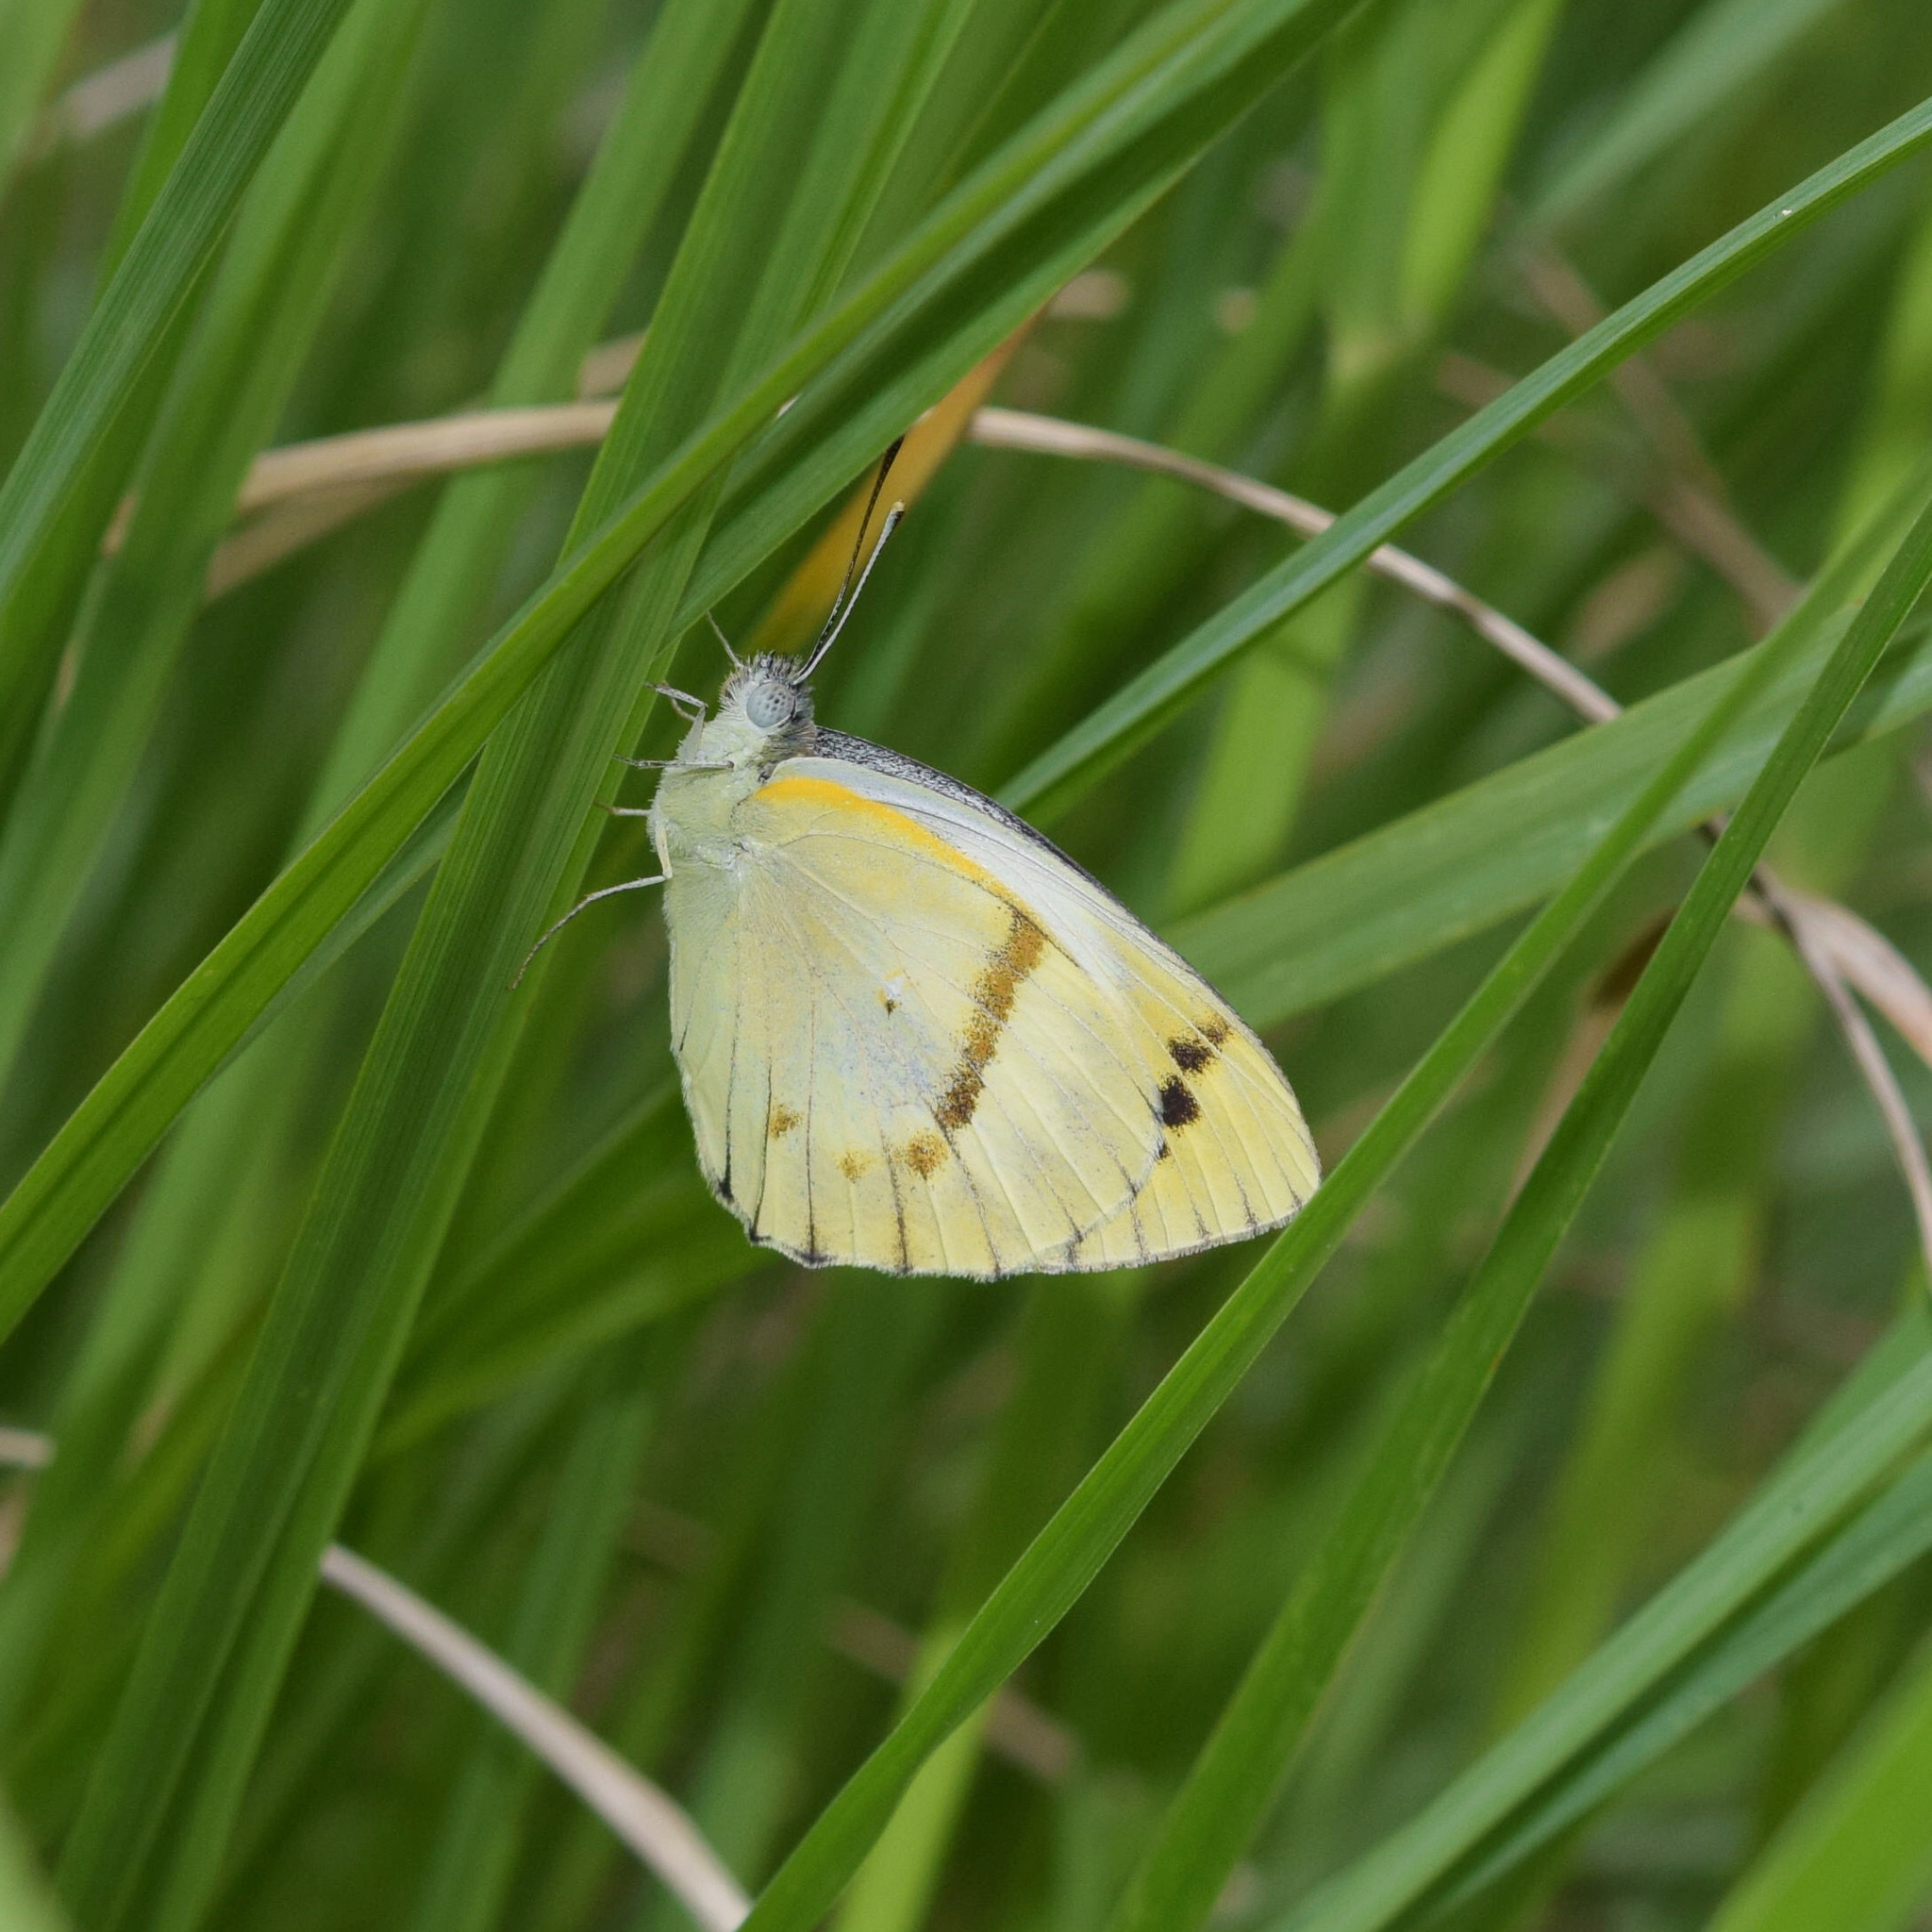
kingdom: Animalia
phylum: Arthropoda
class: Insecta
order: Lepidoptera
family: Pieridae
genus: Colotis
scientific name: Colotis erone
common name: Coast purple tip
